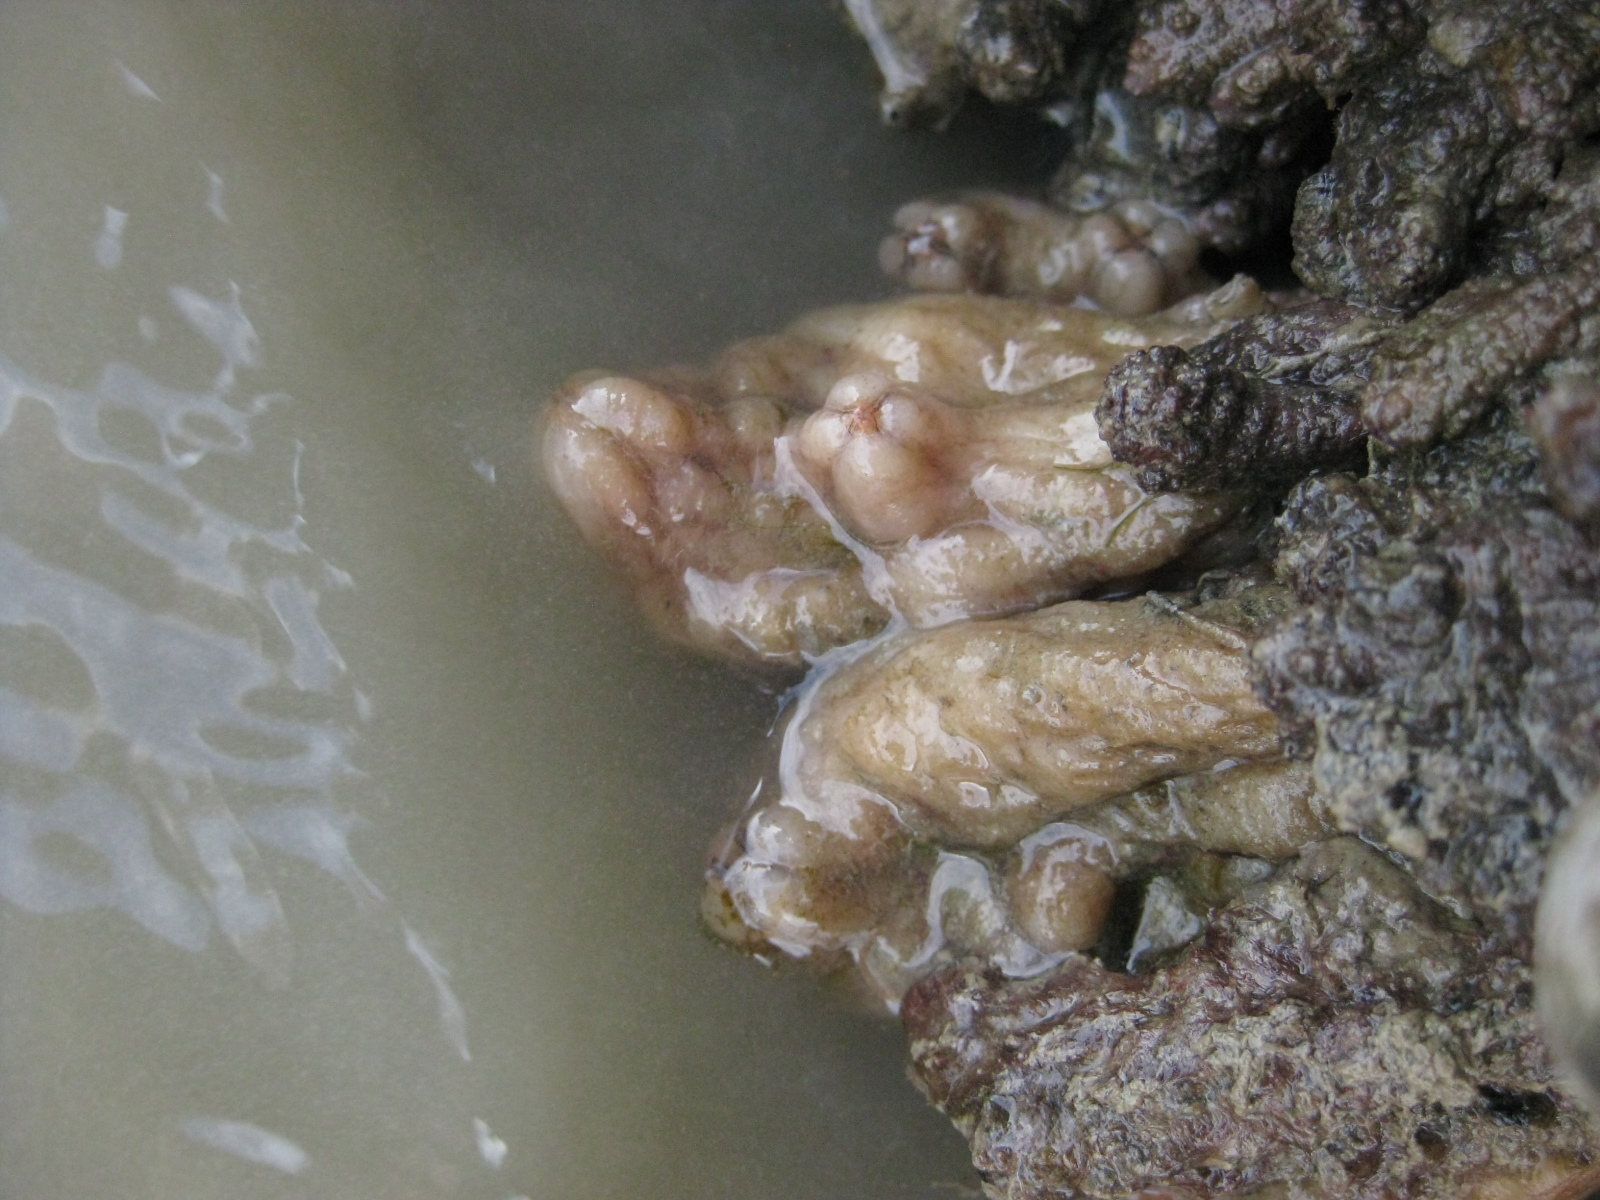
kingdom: Animalia
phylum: Chordata
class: Ascidiacea
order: Stolidobranchia
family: Styelidae
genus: Styela
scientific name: Styela plicata
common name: Pleated tunicate
